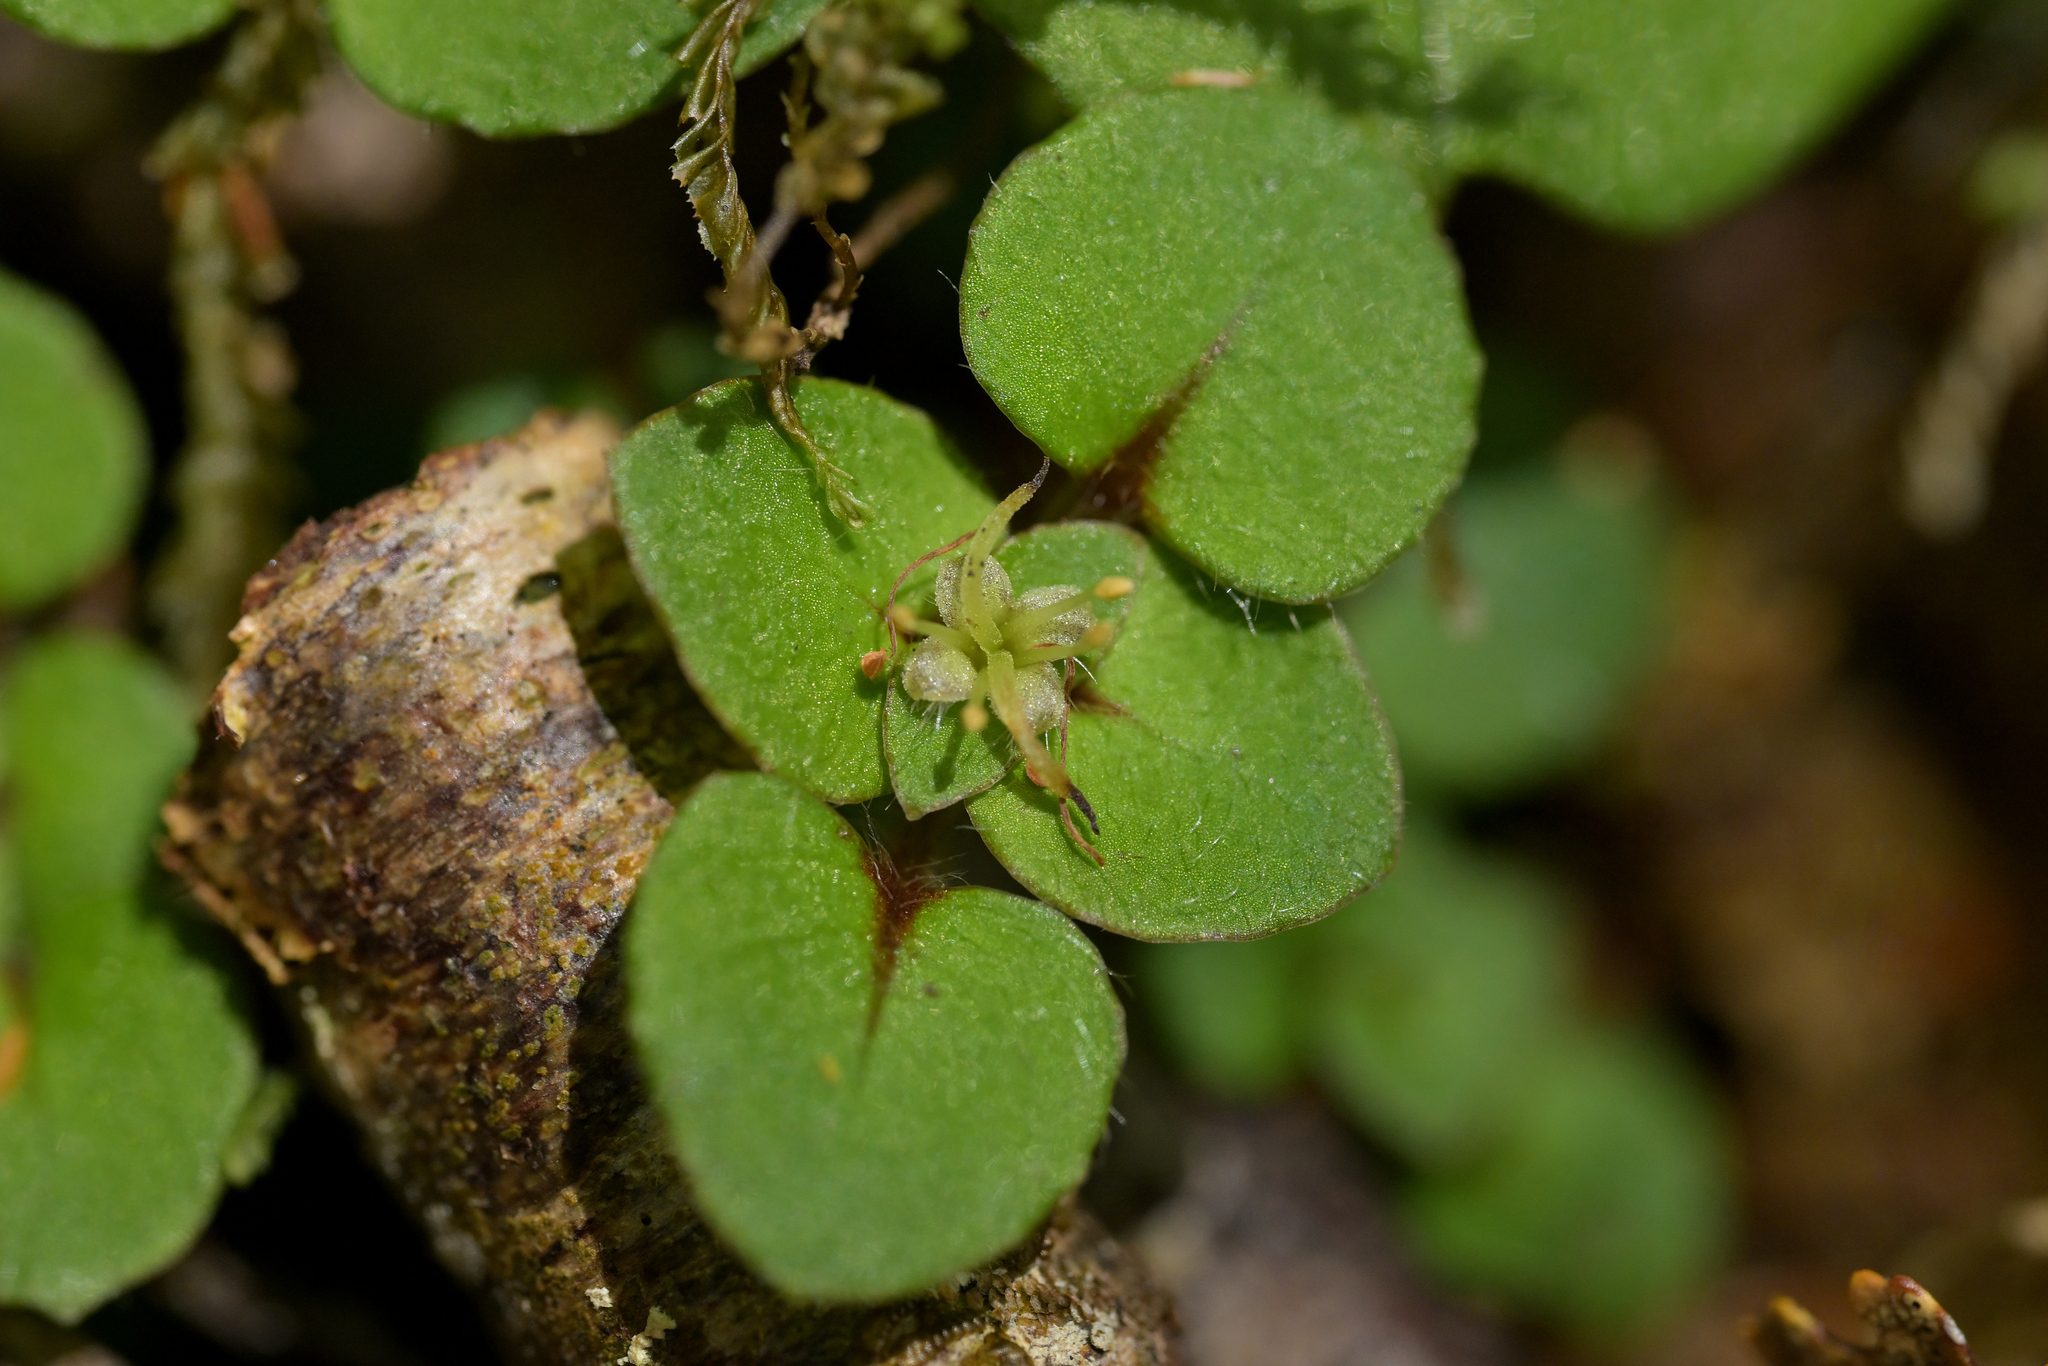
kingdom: Plantae
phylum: Tracheophyta
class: Magnoliopsida
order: Gentianales
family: Rubiaceae
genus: Nertera
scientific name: Nertera villosa
